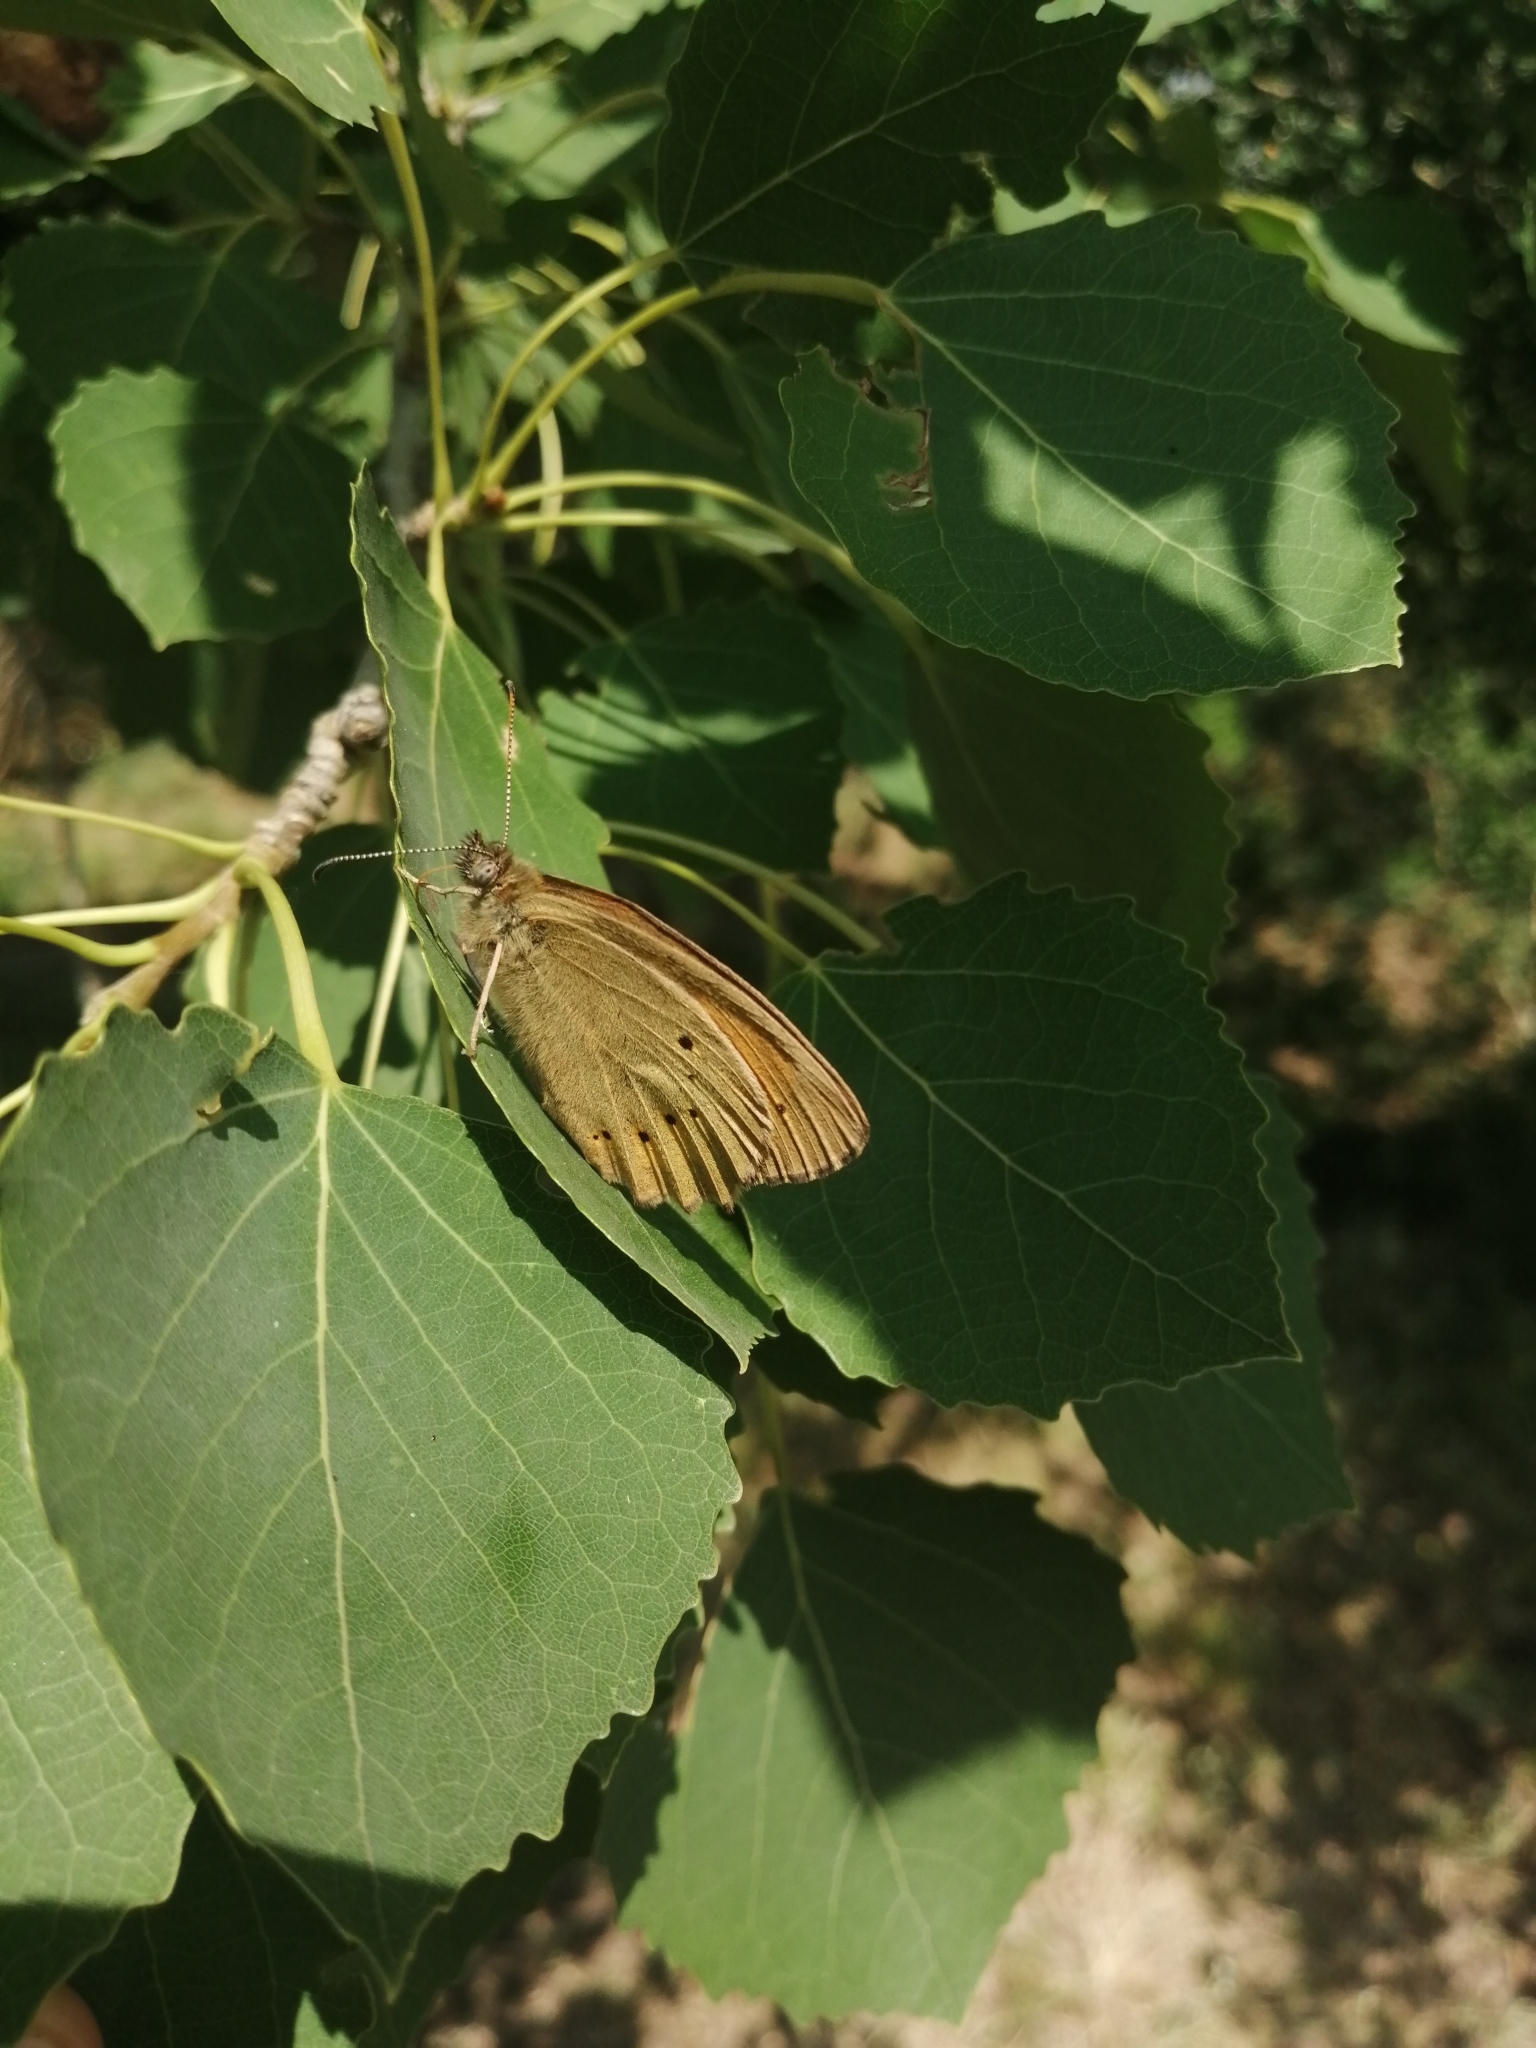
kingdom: Animalia
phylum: Arthropoda
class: Insecta
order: Lepidoptera
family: Nymphalidae
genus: Kirinia
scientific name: Kirinia climene
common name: Lesser lattice brown
